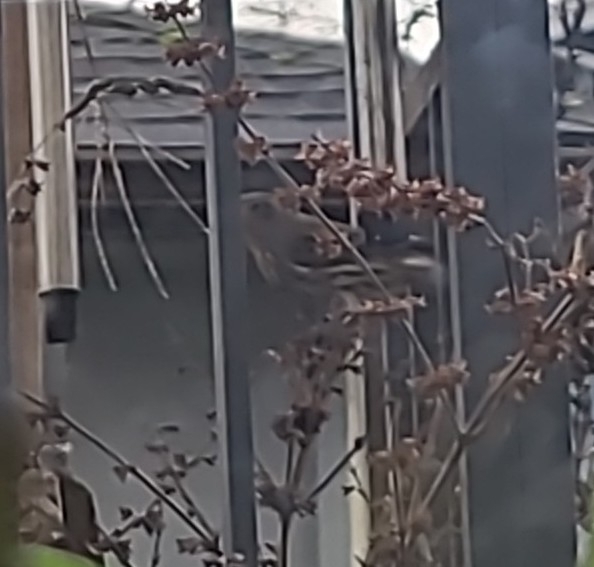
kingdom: Animalia
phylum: Chordata
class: Aves
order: Passeriformes
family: Fringillidae
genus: Haemorhous
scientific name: Haemorhous mexicanus
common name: House finch
